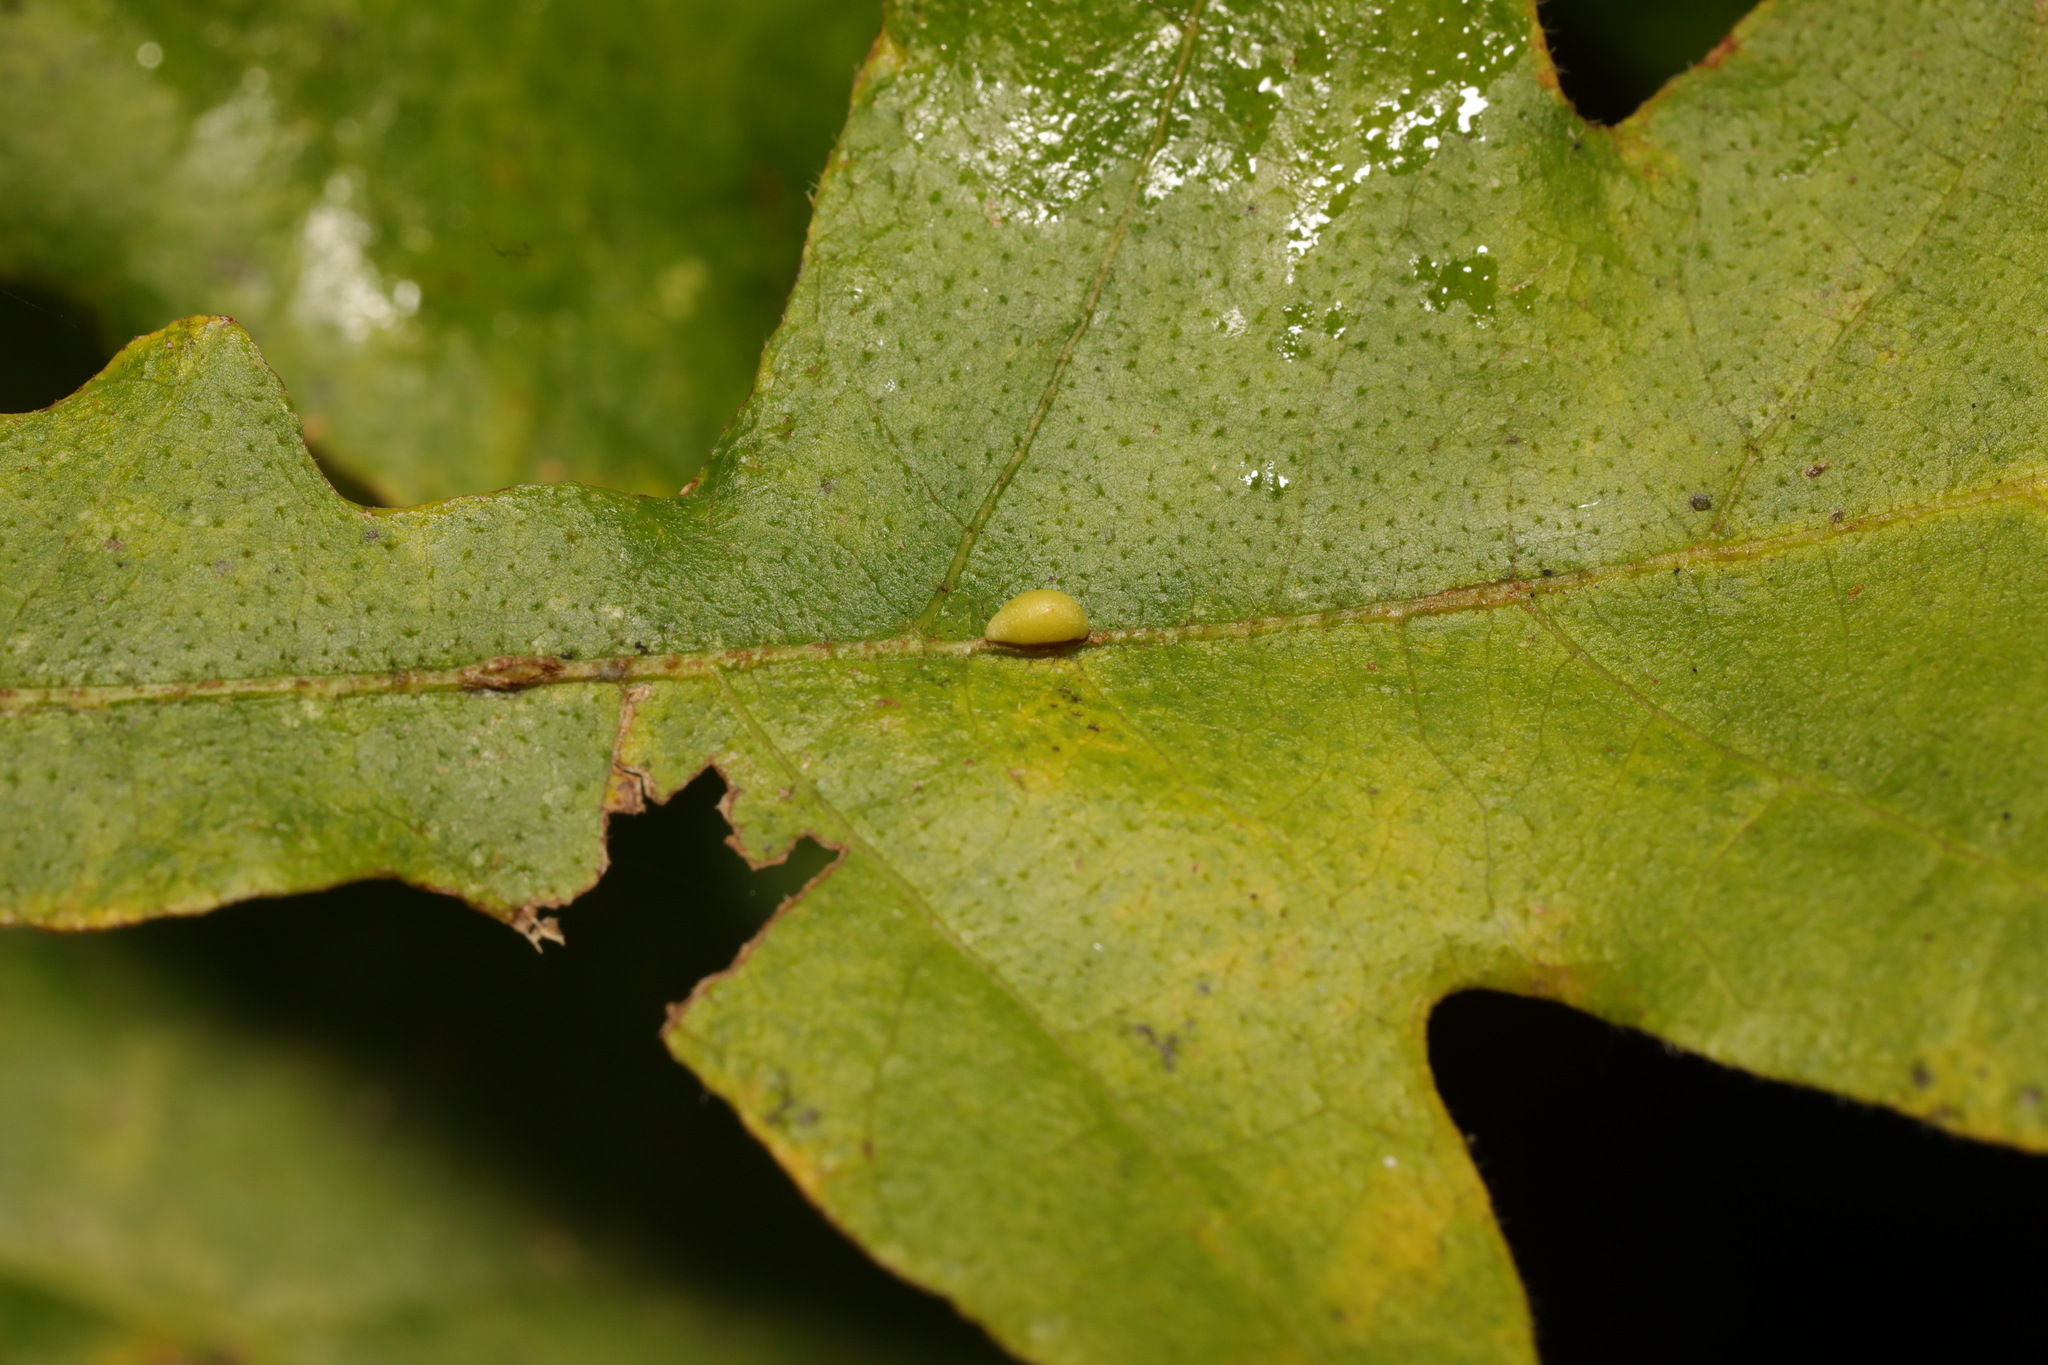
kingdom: Animalia
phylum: Arthropoda
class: Insecta
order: Hymenoptera
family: Cynipidae
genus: Neuroterus
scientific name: Neuroterus saliens
